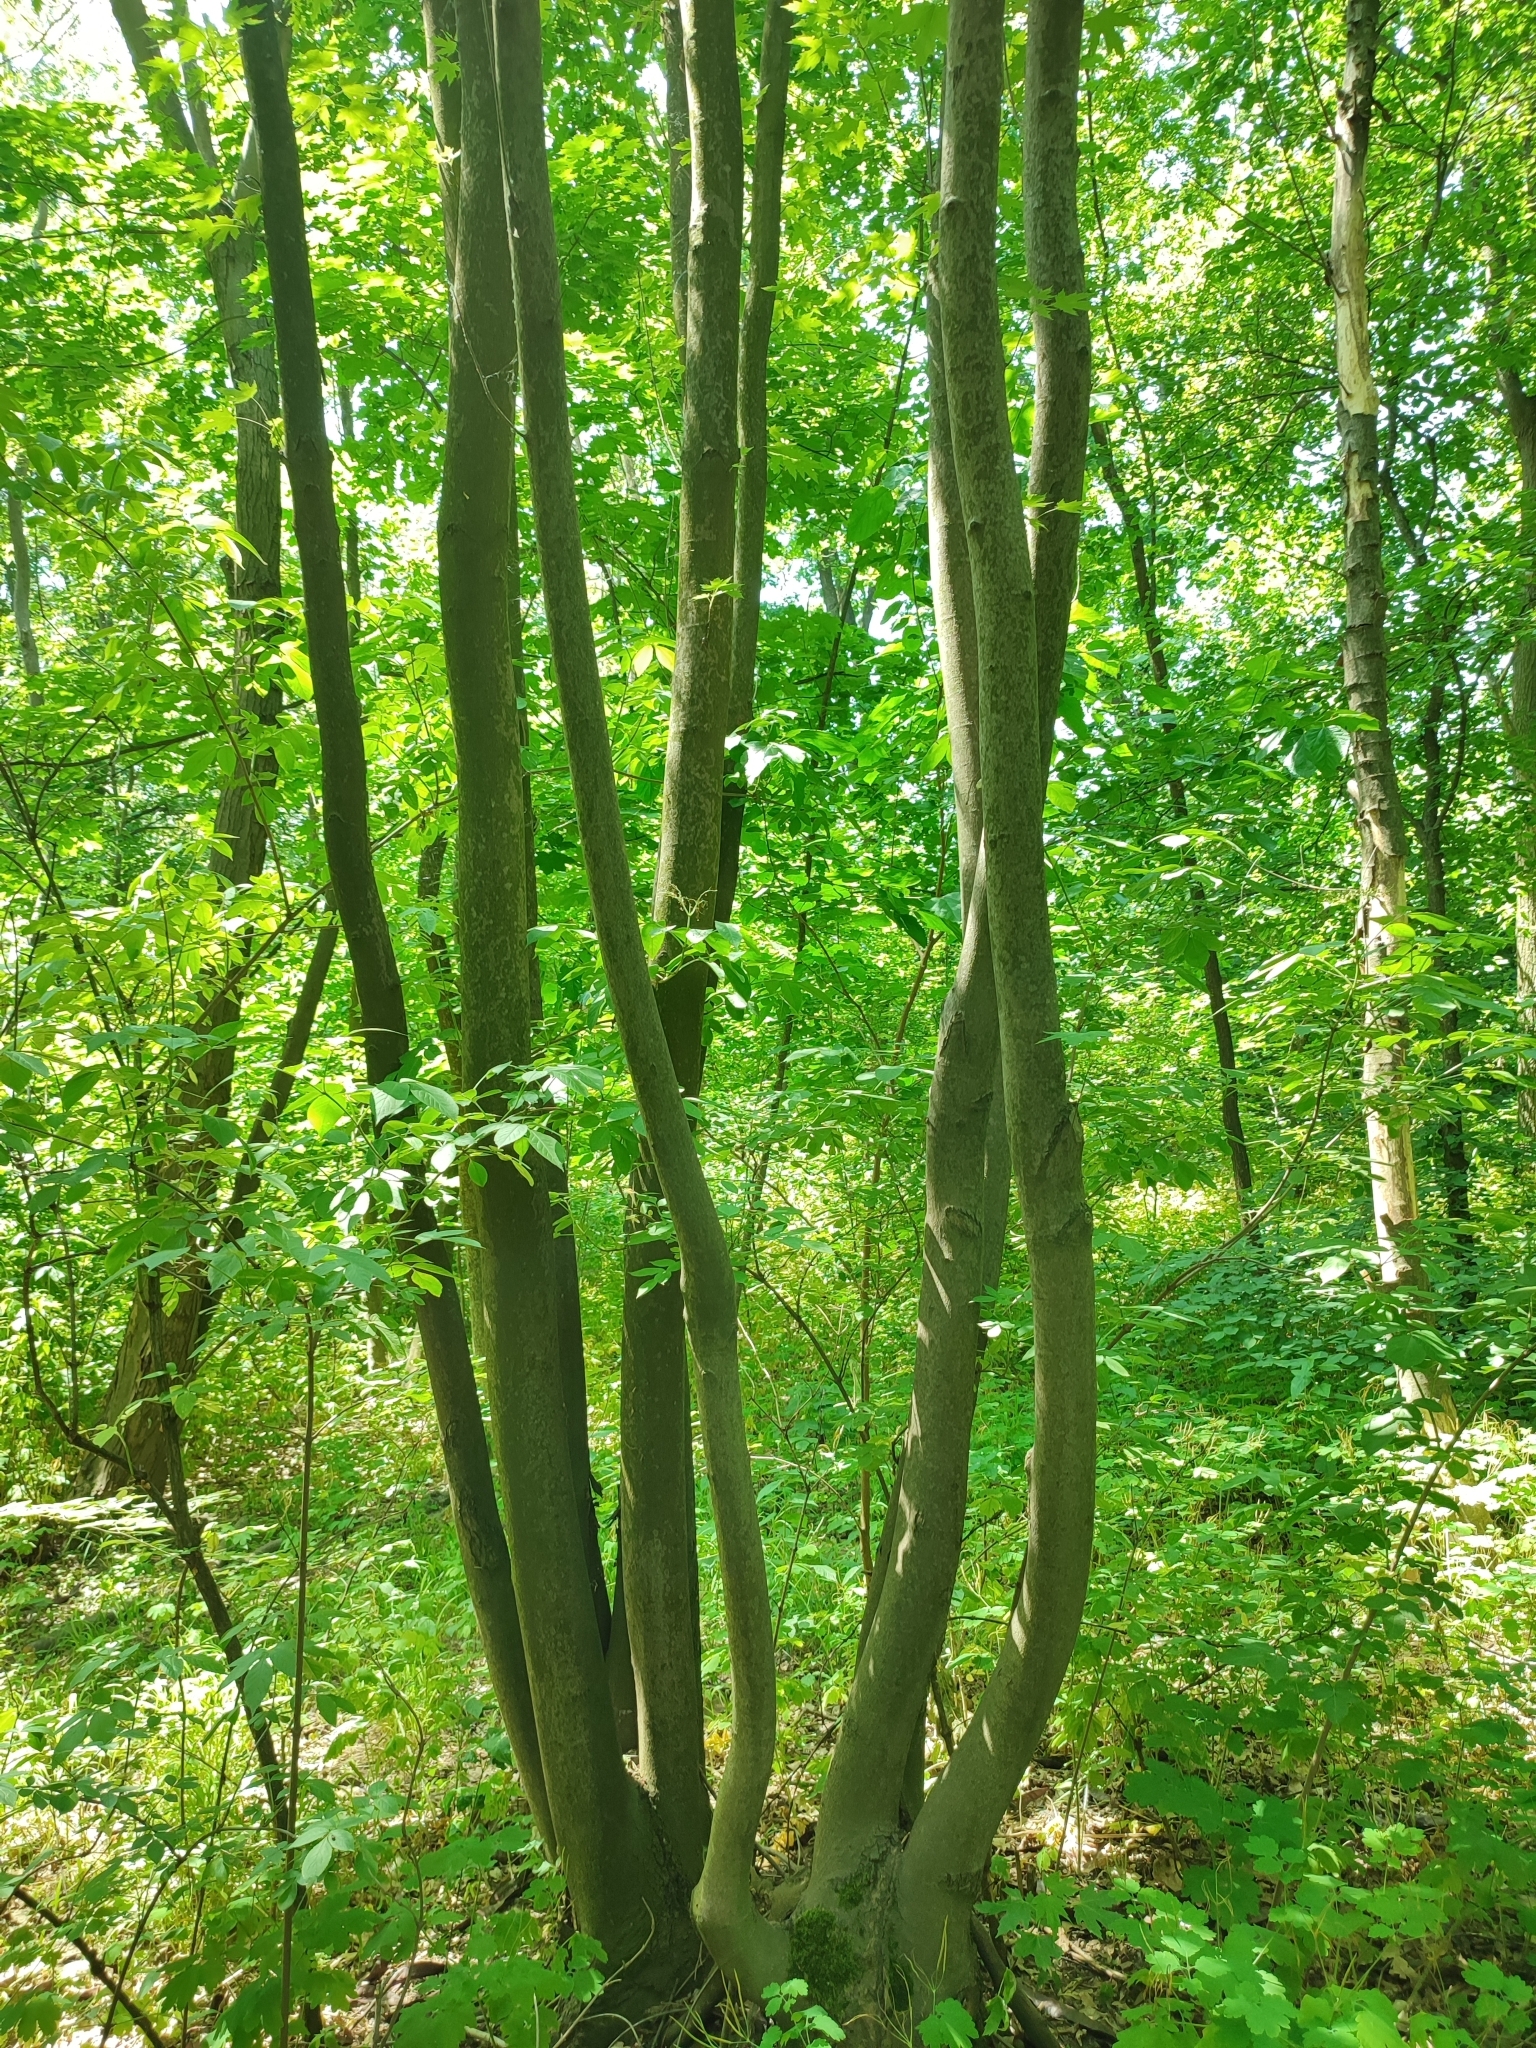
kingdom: Plantae
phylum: Tracheophyta
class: Magnoliopsida
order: Sapindales
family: Sapindaceae
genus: Acer
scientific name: Acer saccharinum
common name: Silver maple
